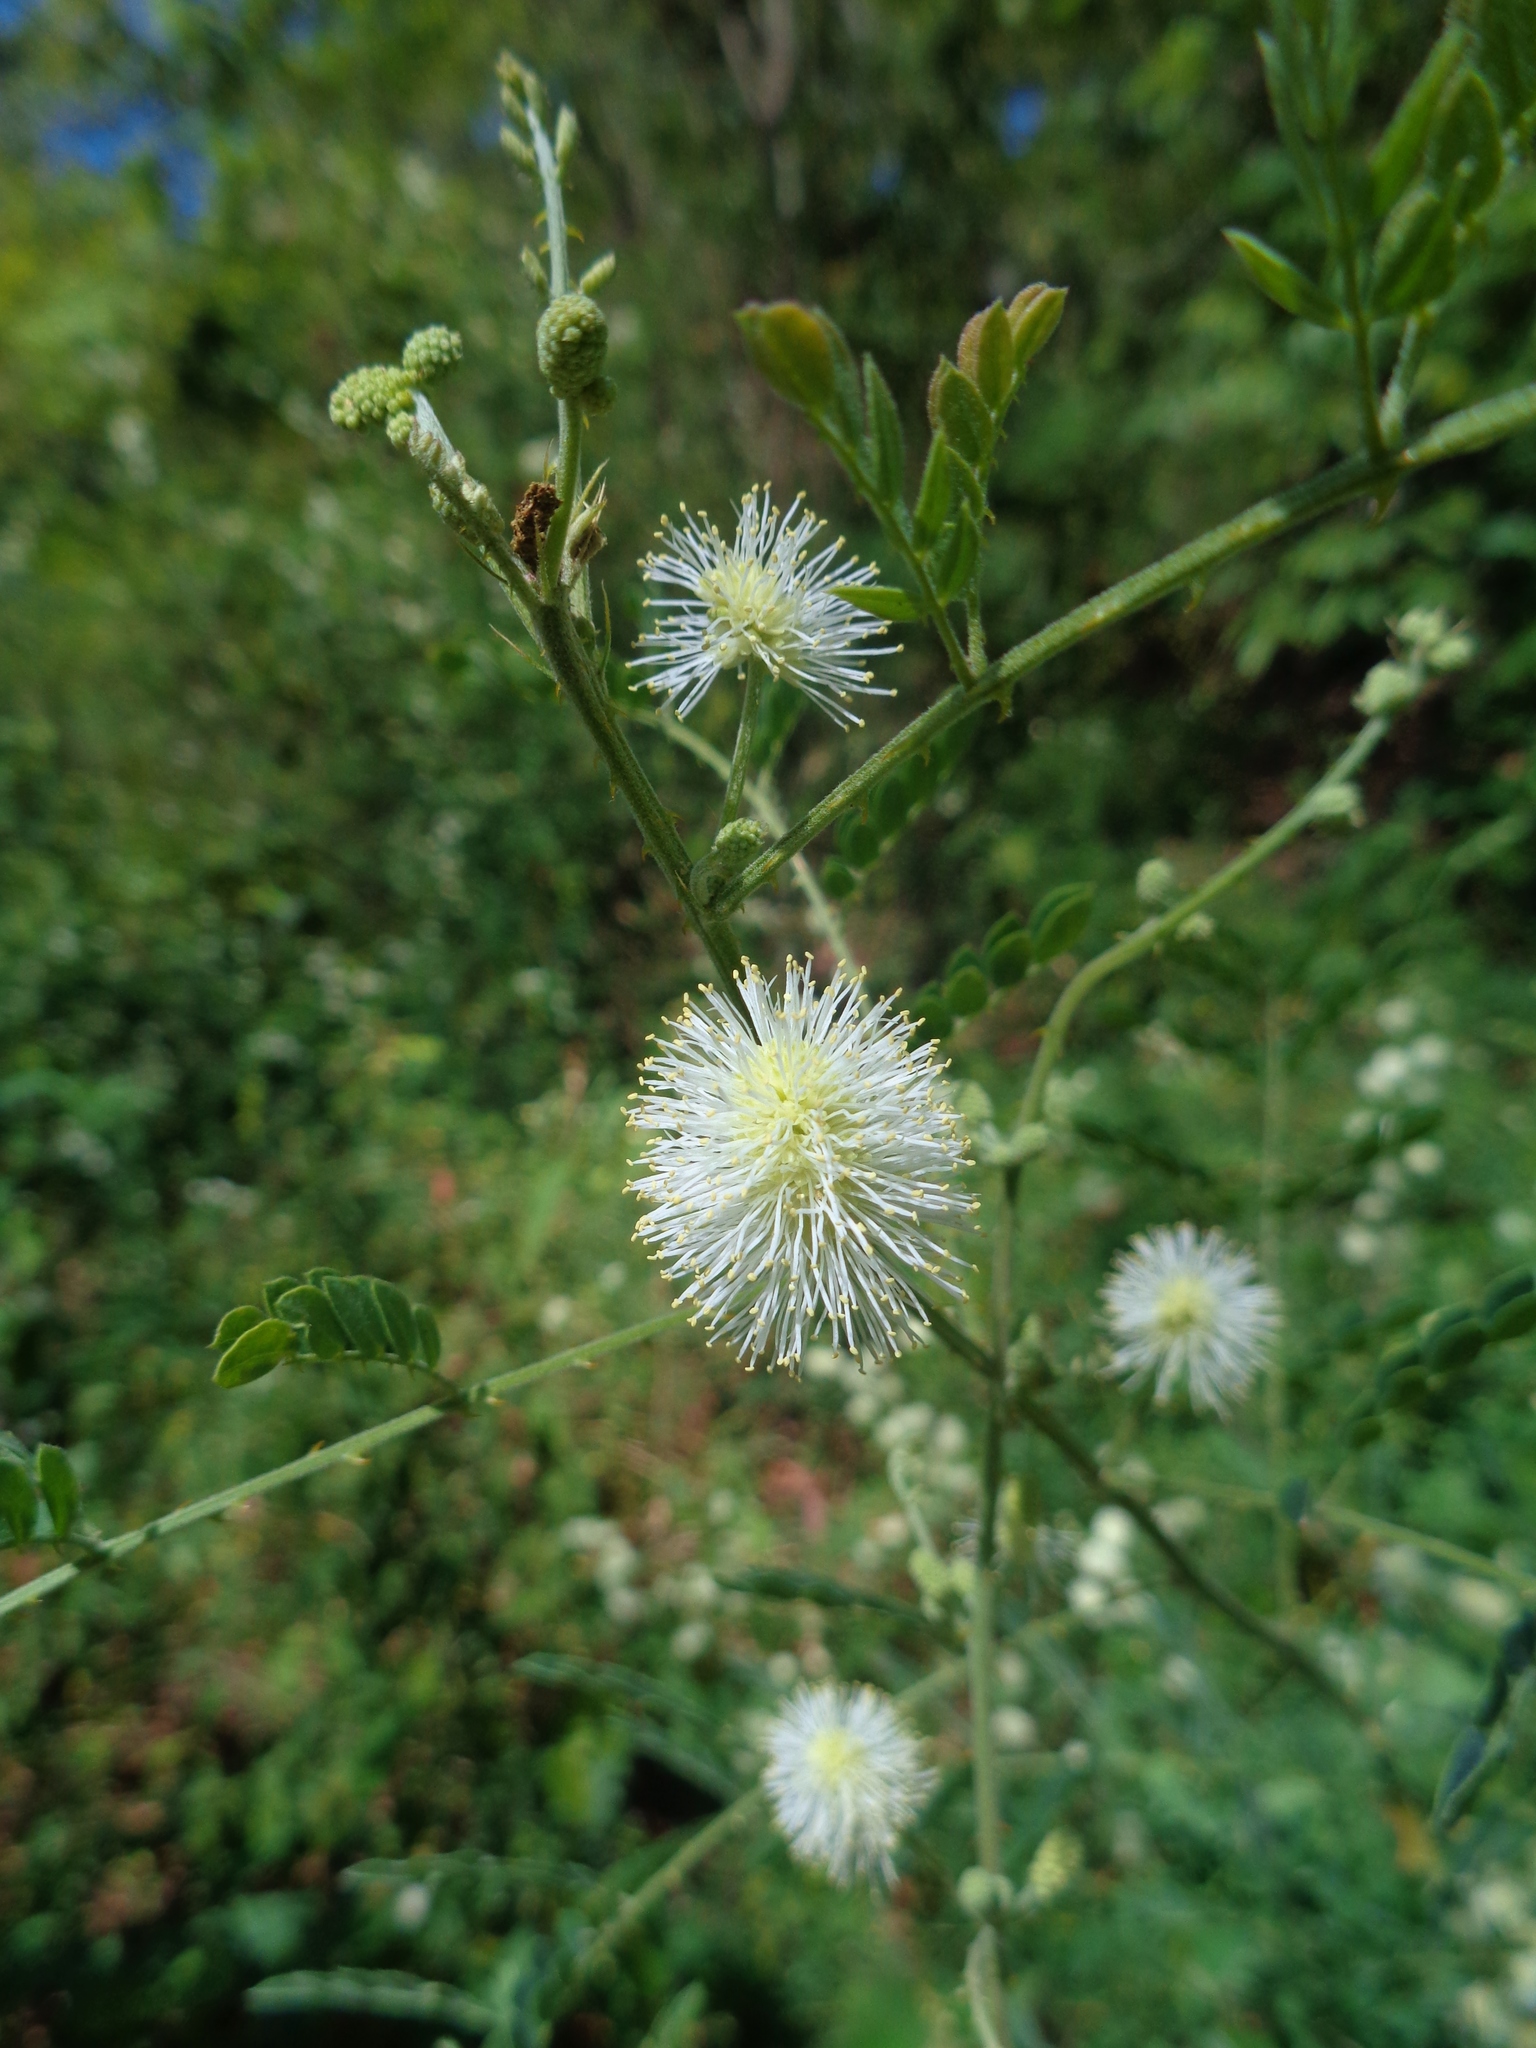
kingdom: Plantae
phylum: Tracheophyta
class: Magnoliopsida
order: Fabales
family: Fabaceae
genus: Mimosa
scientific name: Mimosa malacophylla
